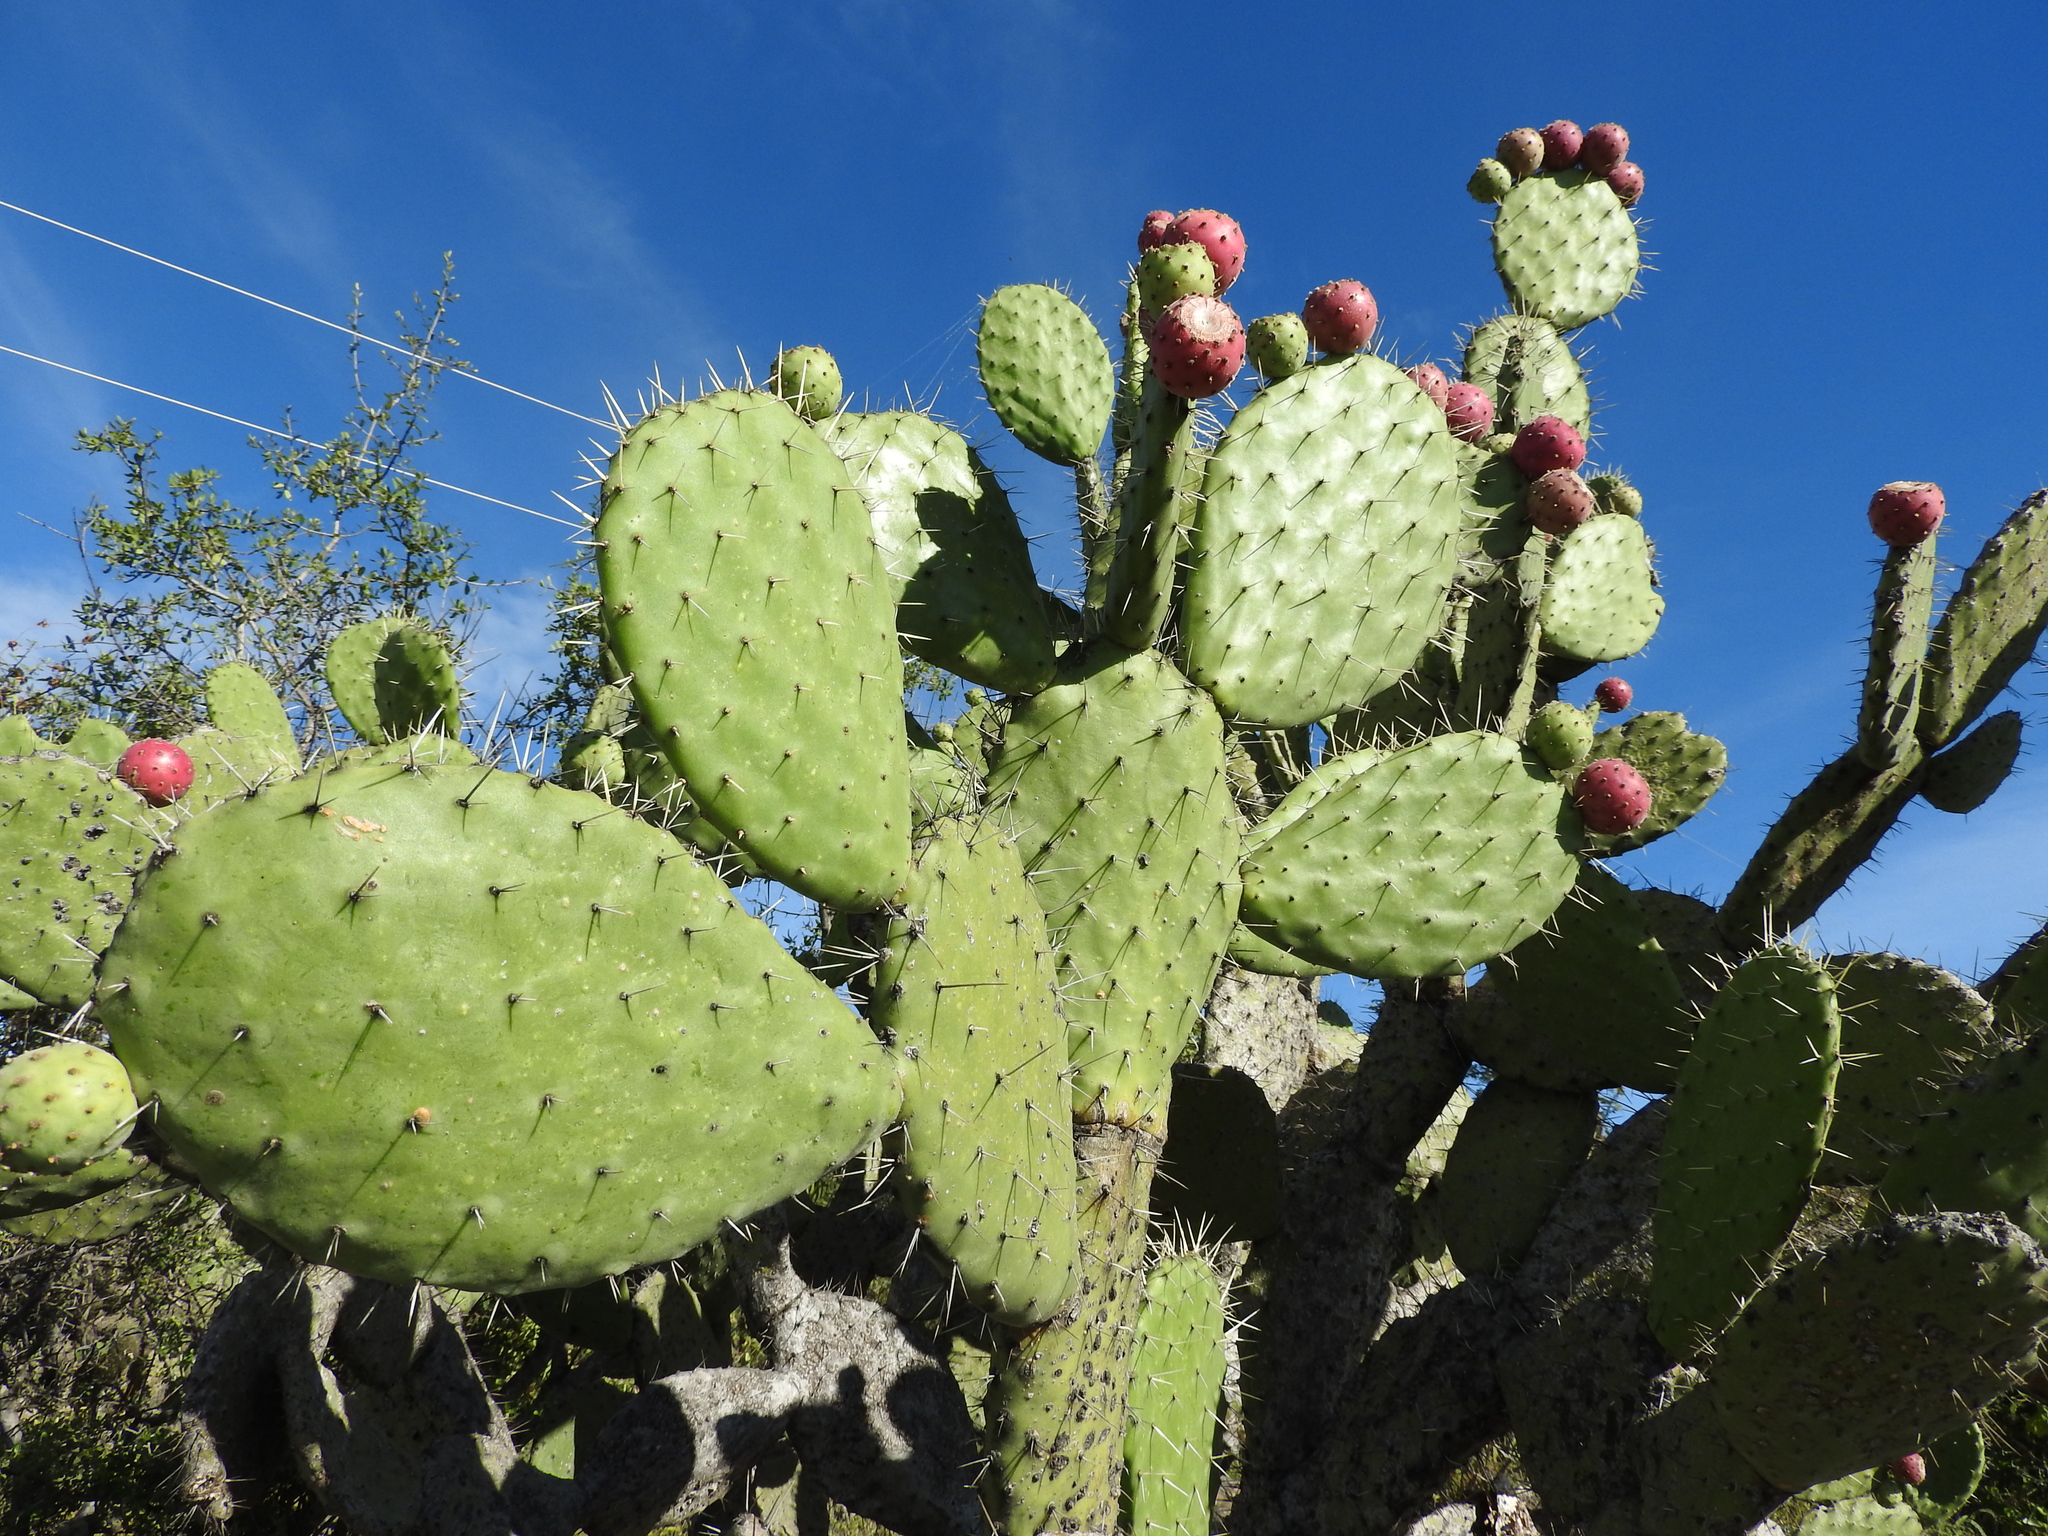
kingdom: Plantae
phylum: Tracheophyta
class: Magnoliopsida
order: Caryophyllales
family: Cactaceae
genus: Opuntia
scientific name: Opuntia tomentosa
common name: Woollyjoint pricklypear
